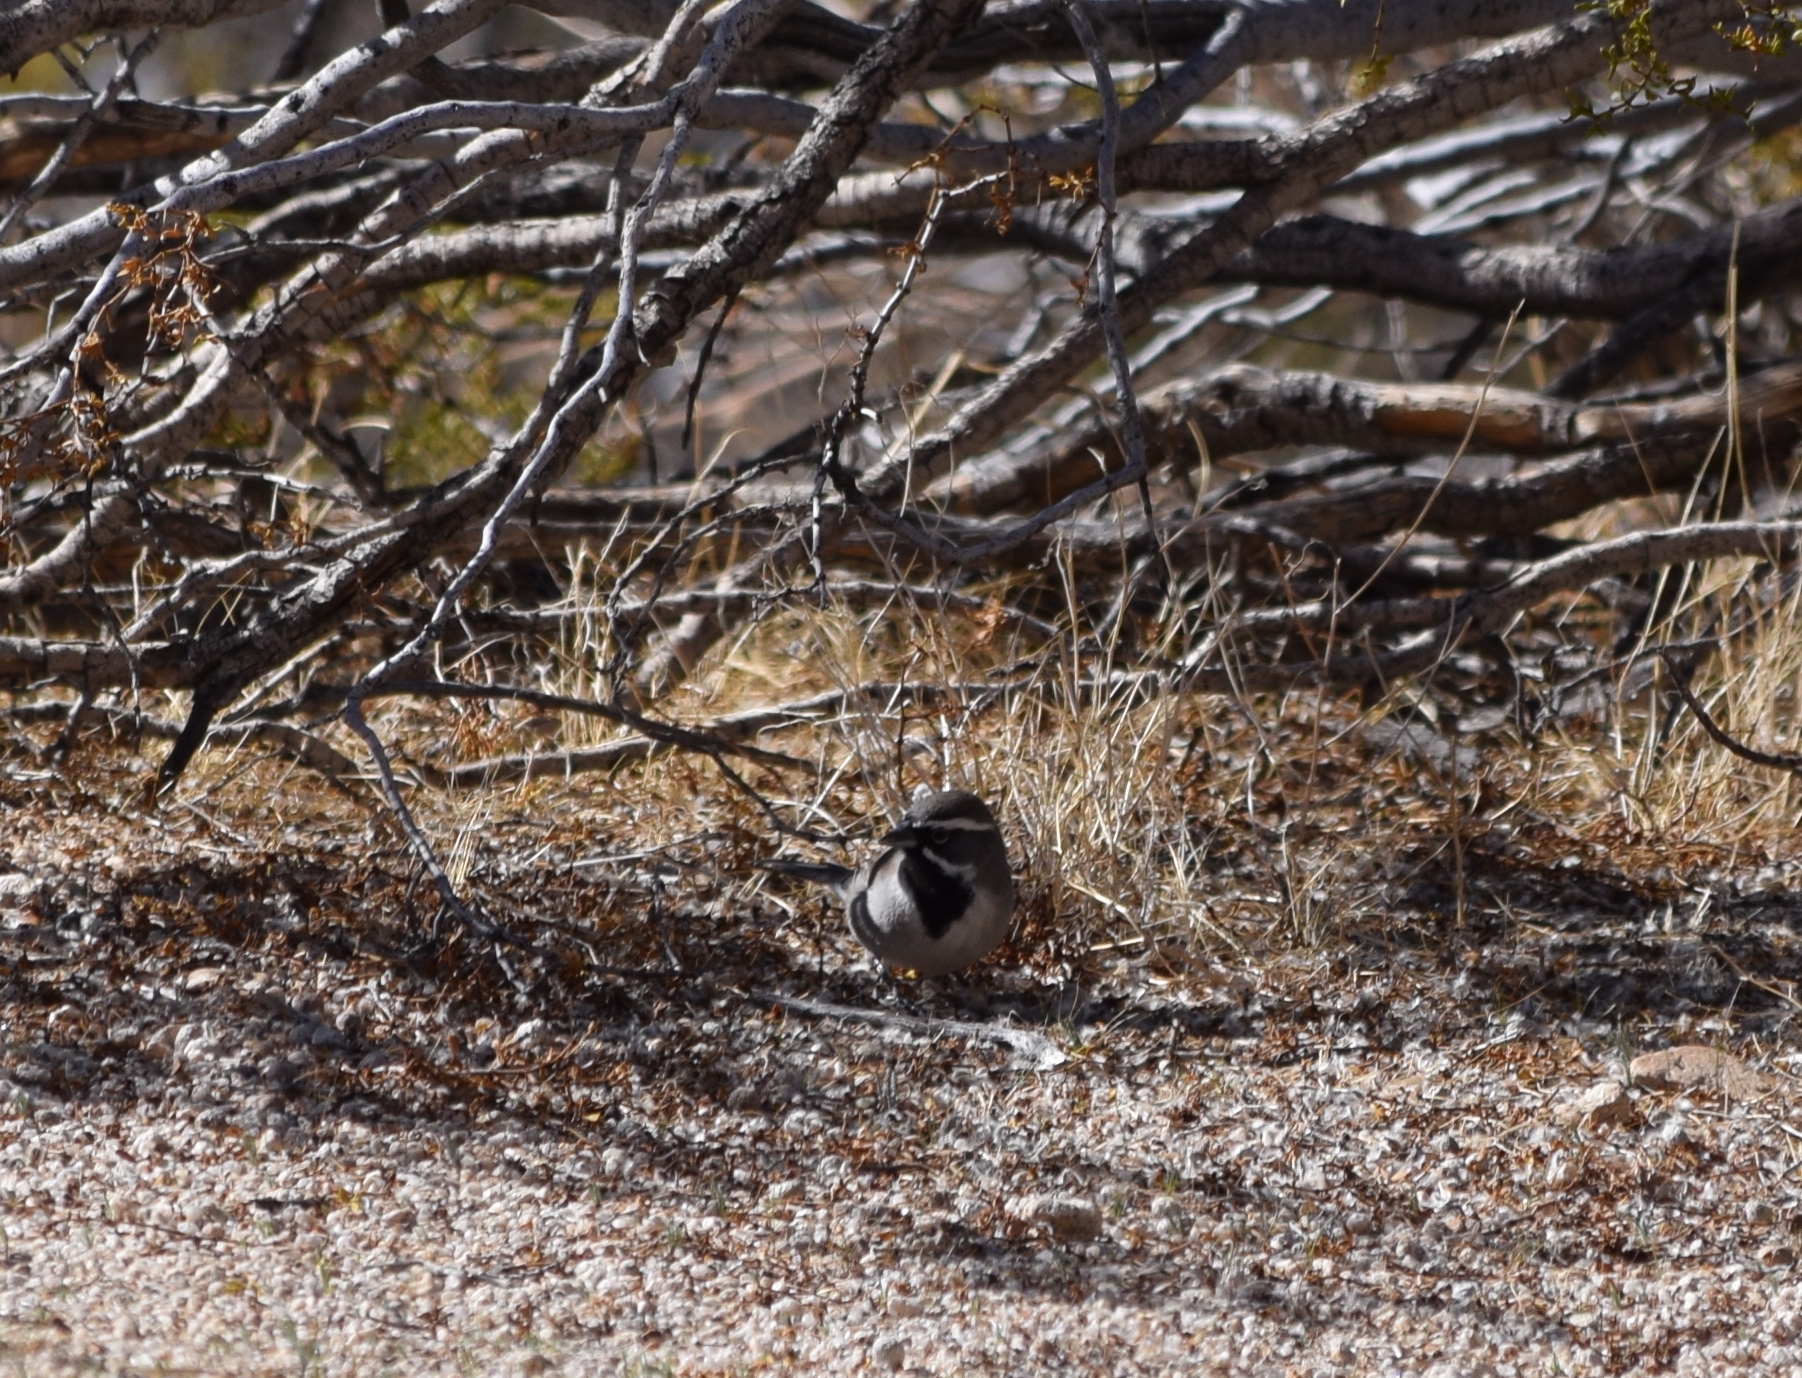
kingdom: Animalia
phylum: Chordata
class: Aves
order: Passeriformes
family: Passerellidae
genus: Amphispiza
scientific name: Amphispiza bilineata
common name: Black-throated sparrow
